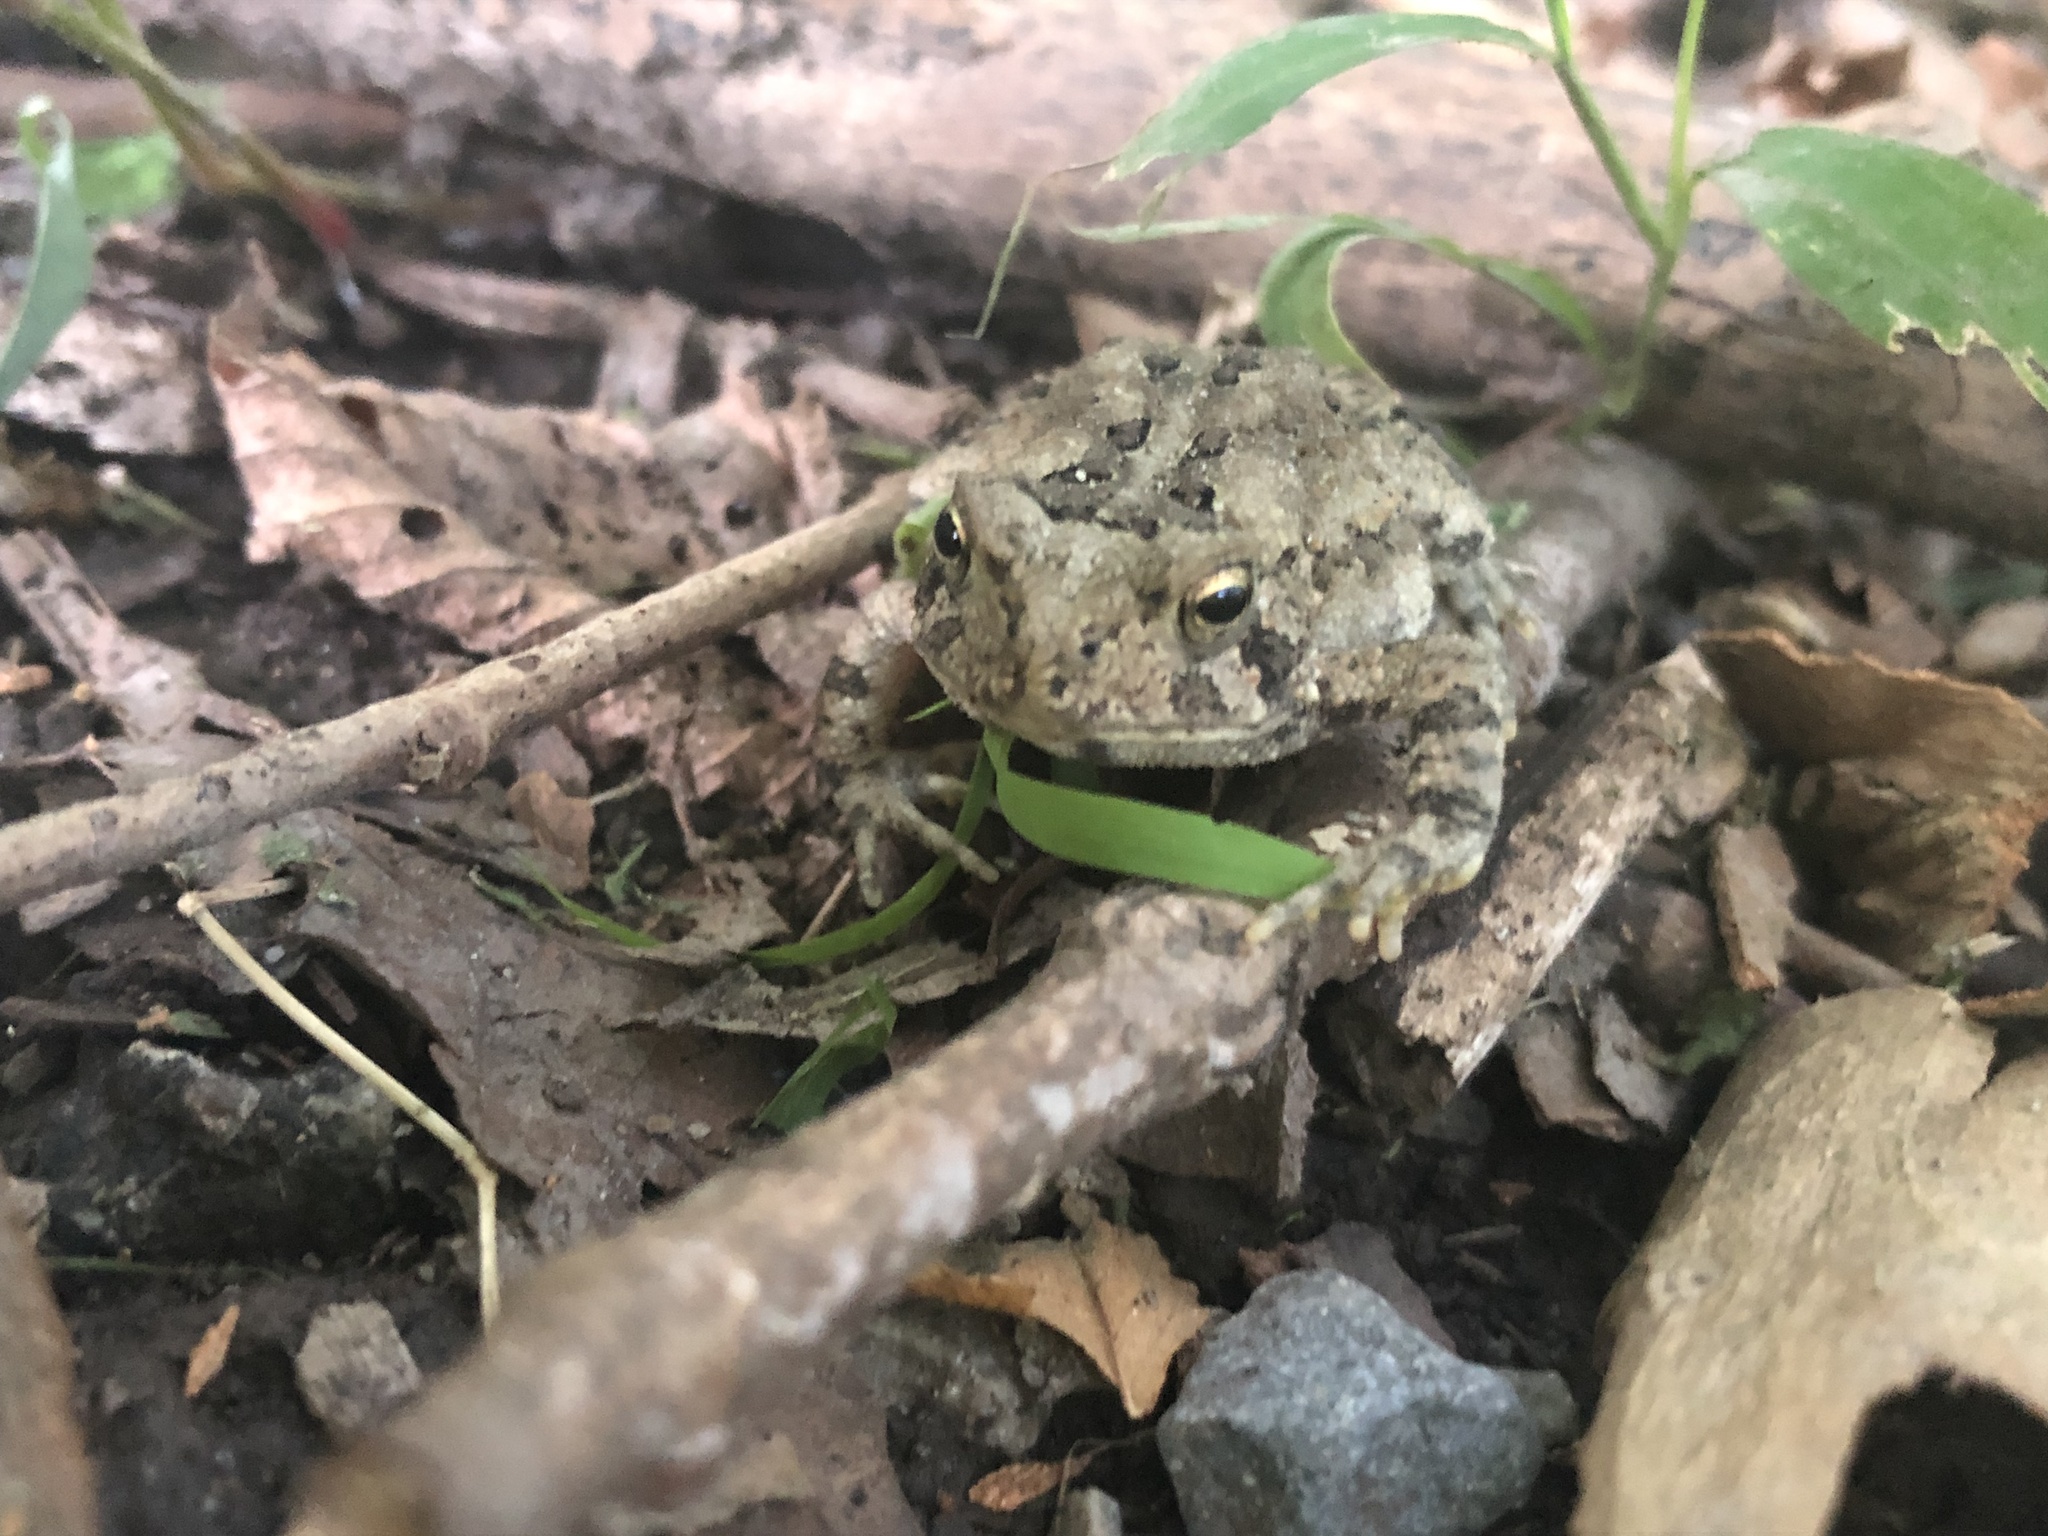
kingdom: Animalia
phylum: Chordata
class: Amphibia
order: Anura
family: Bufonidae
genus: Anaxyrus
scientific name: Anaxyrus americanus
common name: American toad
